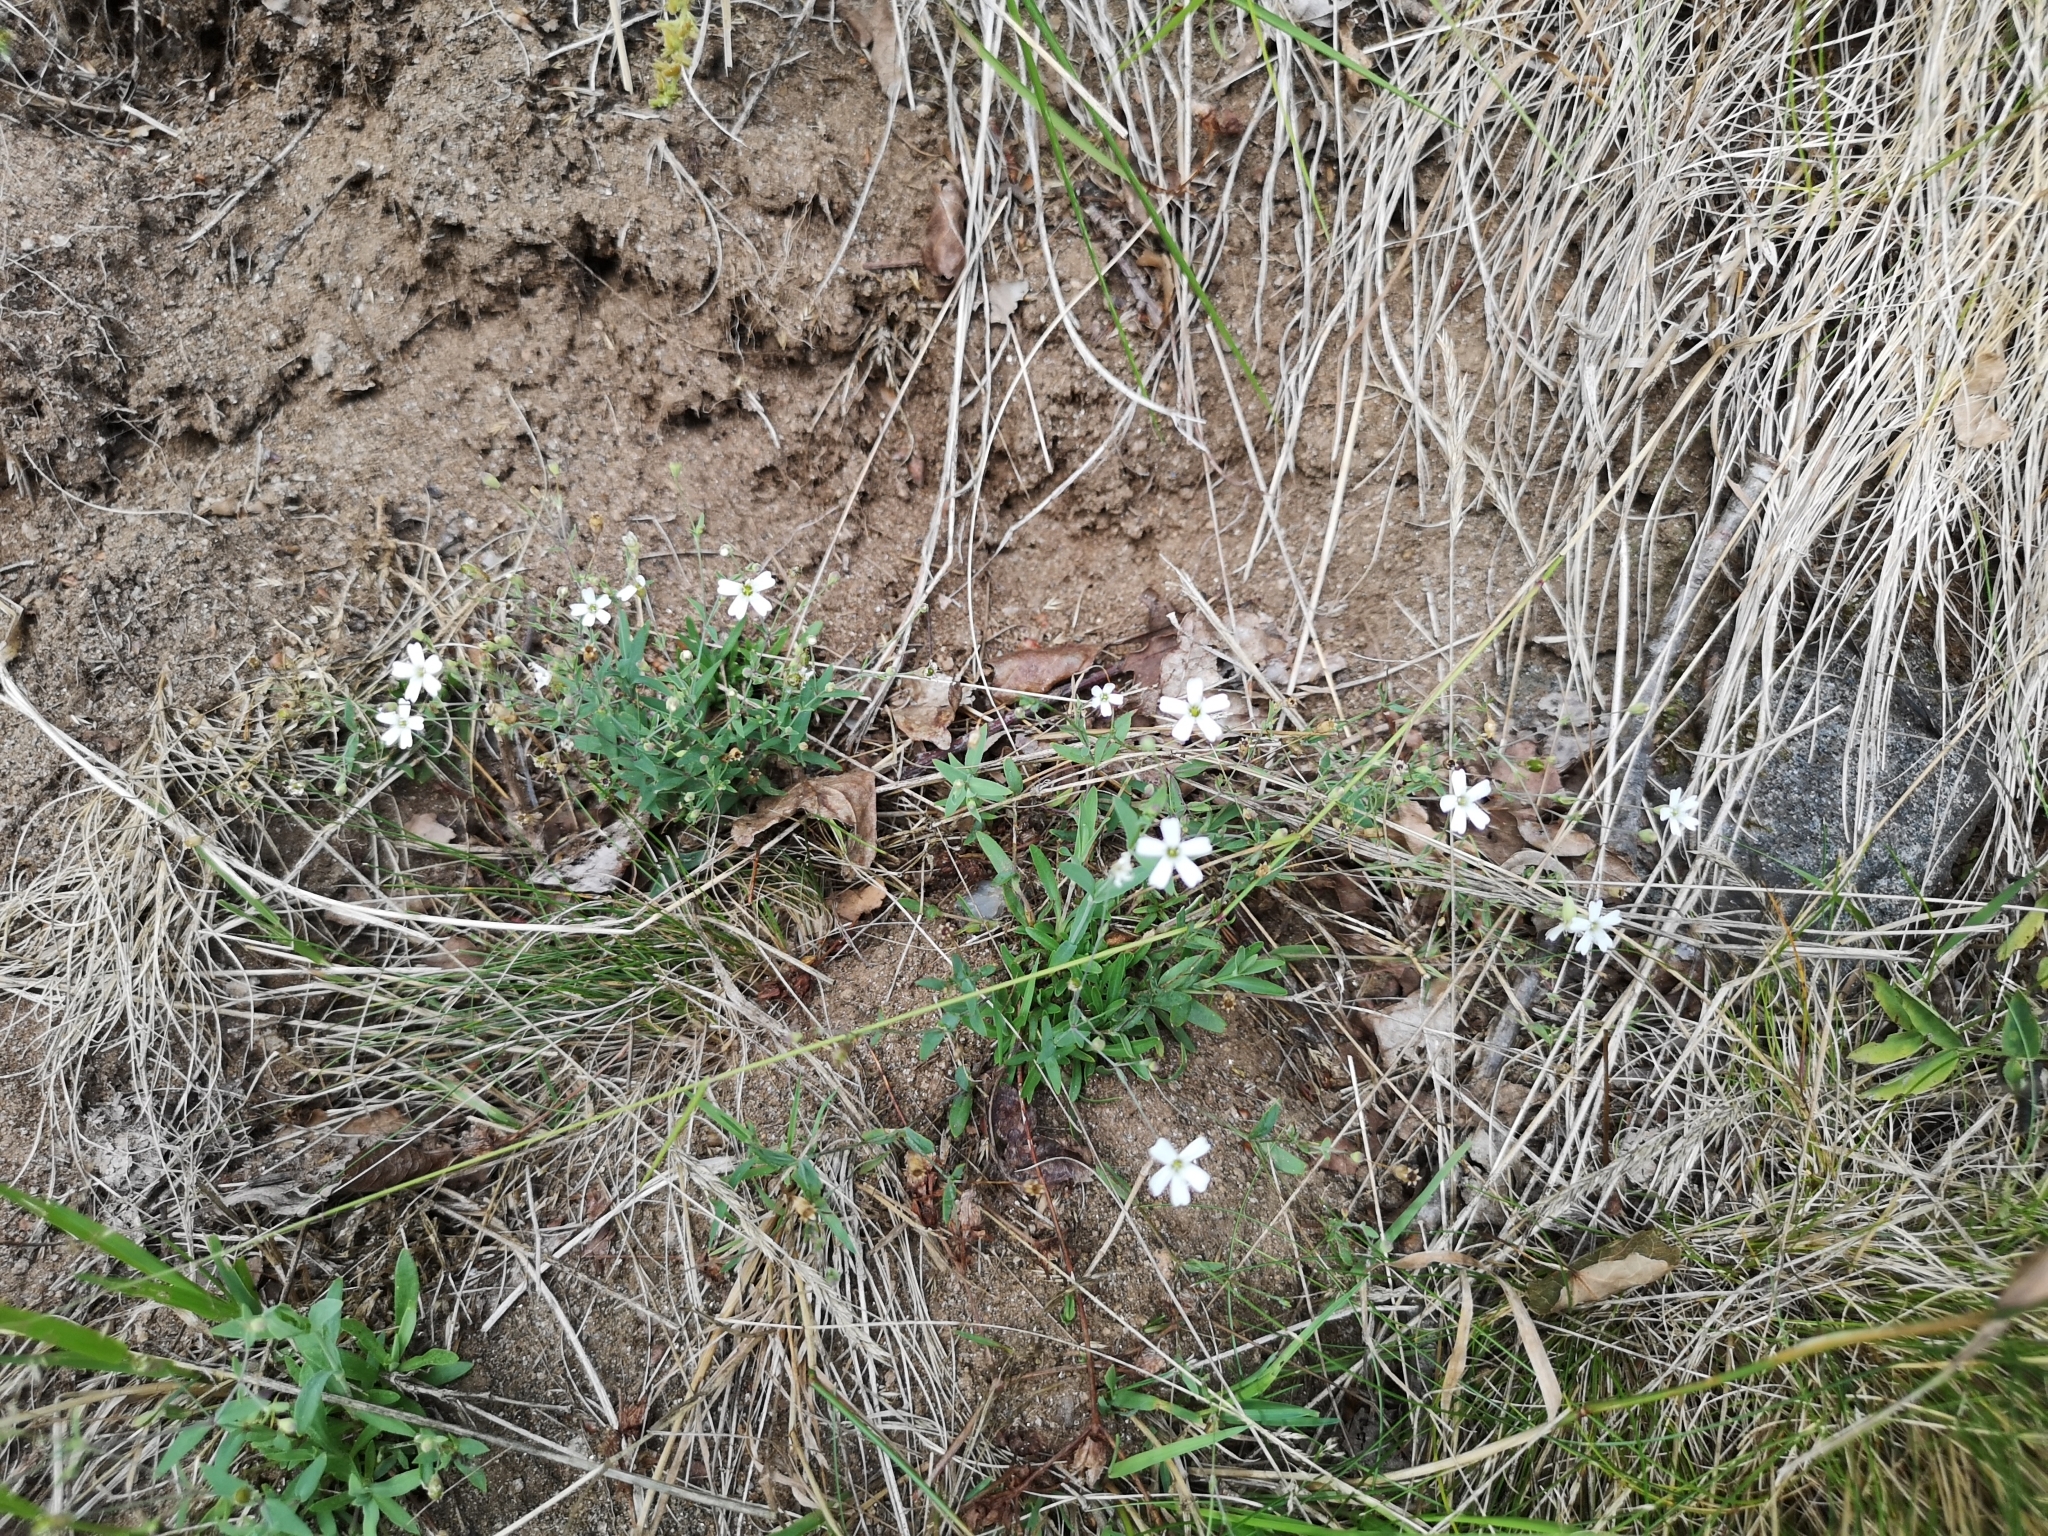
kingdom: Plantae
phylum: Tracheophyta
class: Magnoliopsida
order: Caryophyllales
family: Caryophyllaceae
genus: Atocion
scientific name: Atocion rupestre
